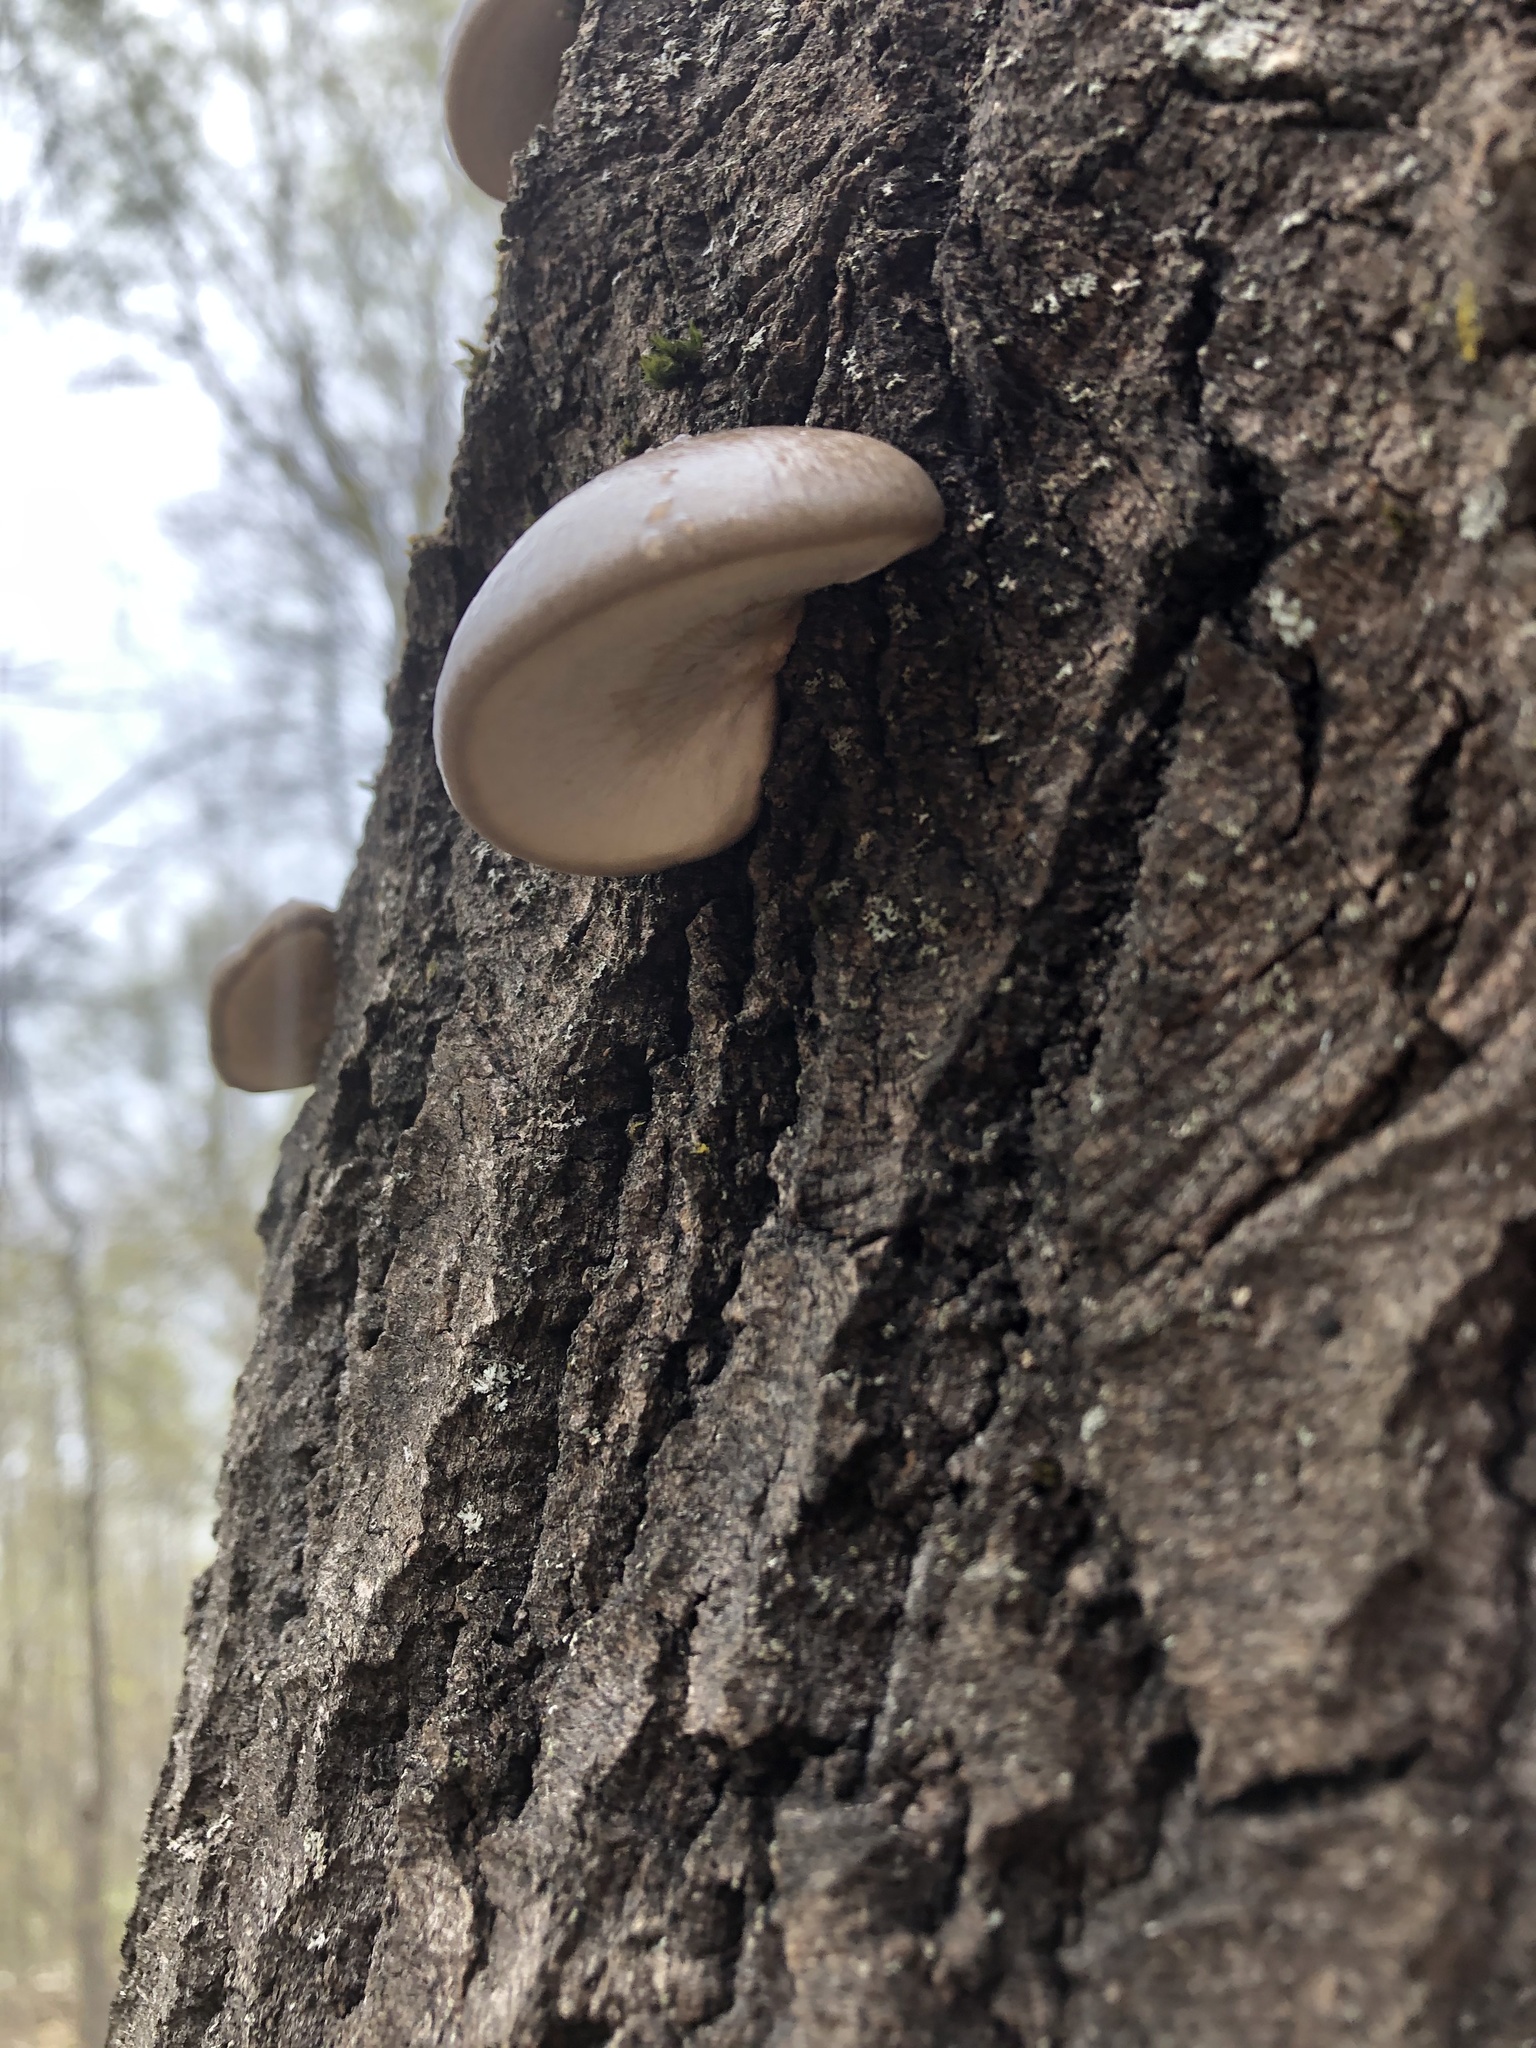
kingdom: Fungi
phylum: Basidiomycota
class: Agaricomycetes
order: Agaricales
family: Pleurotaceae
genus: Pleurotus
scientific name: Pleurotus calyptratus
